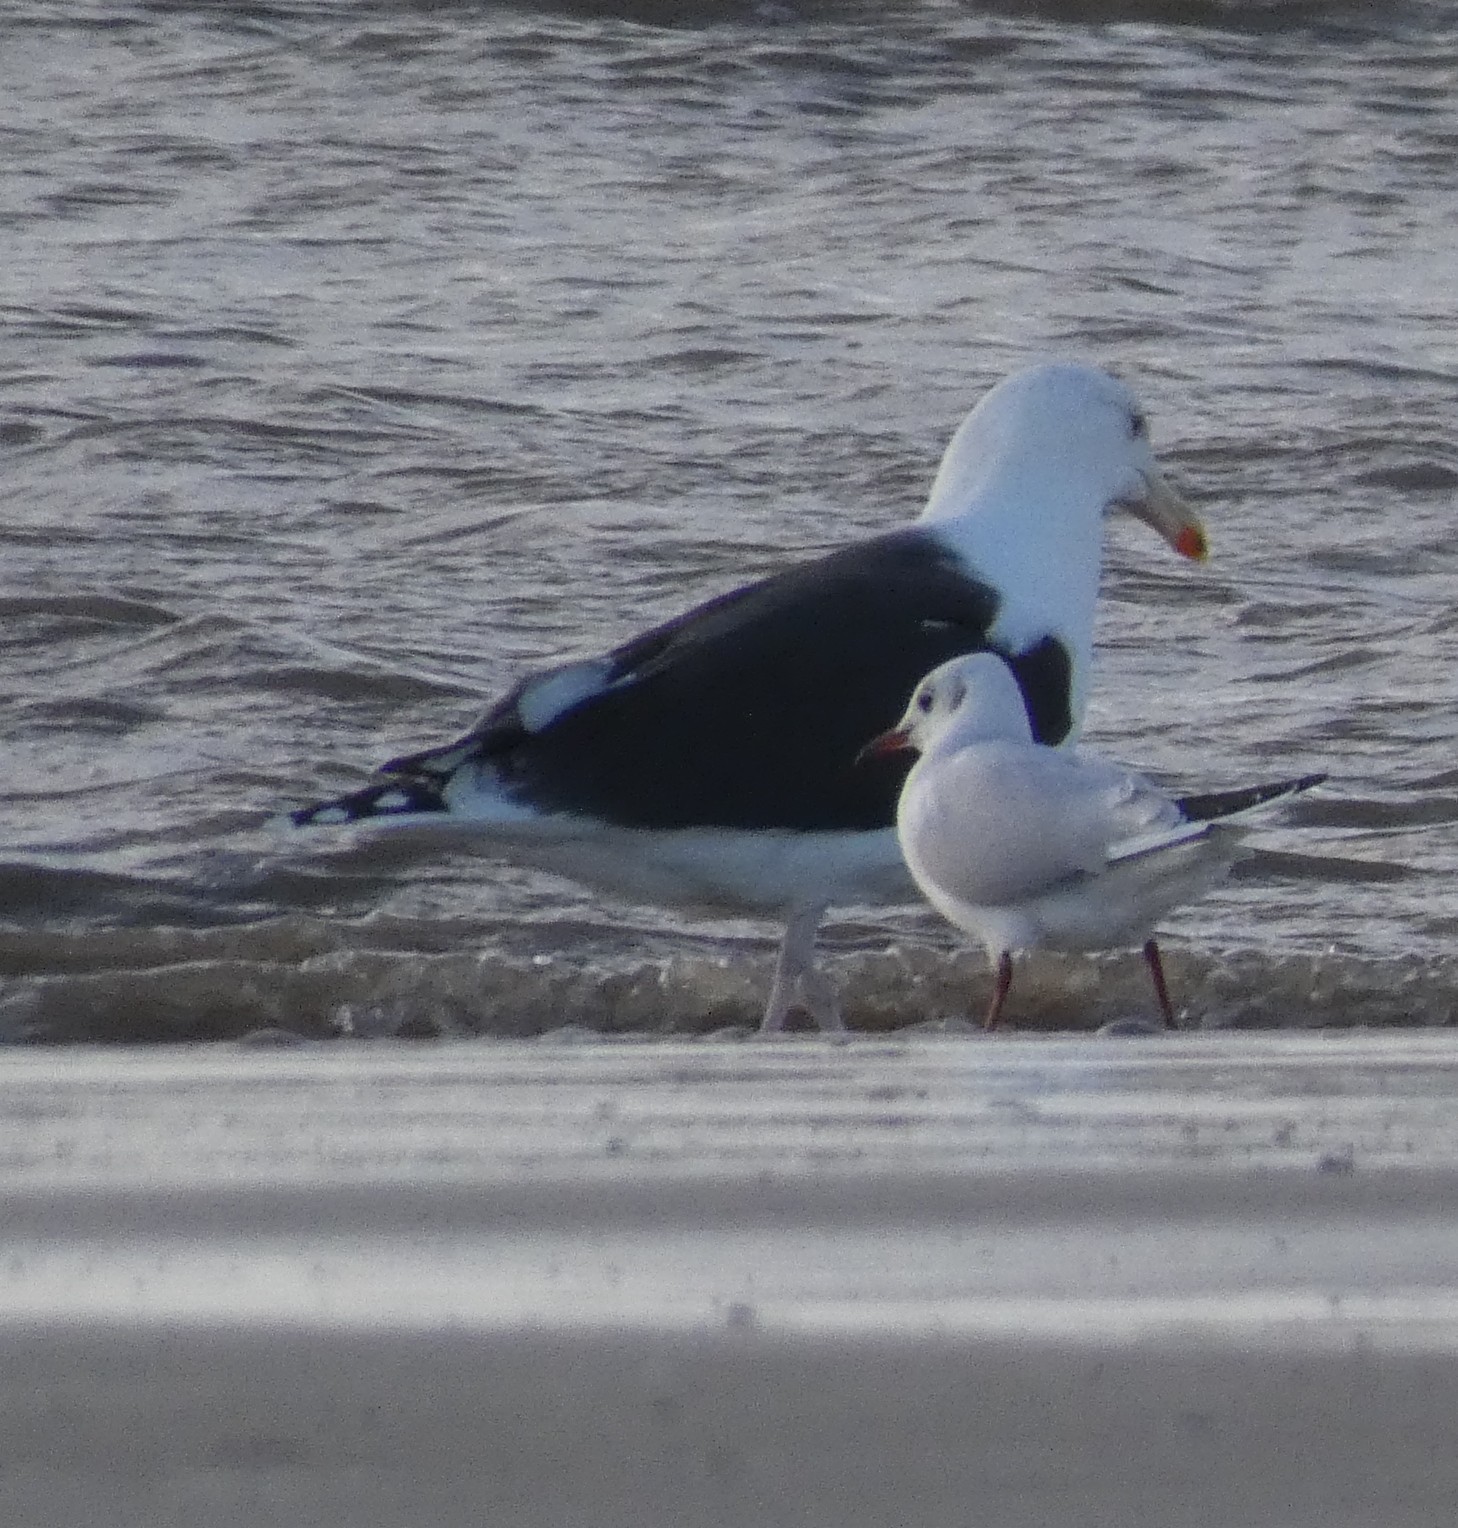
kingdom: Animalia
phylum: Chordata
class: Aves
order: Charadriiformes
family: Laridae
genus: Larus
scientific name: Larus marinus
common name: Great black-backed gull
